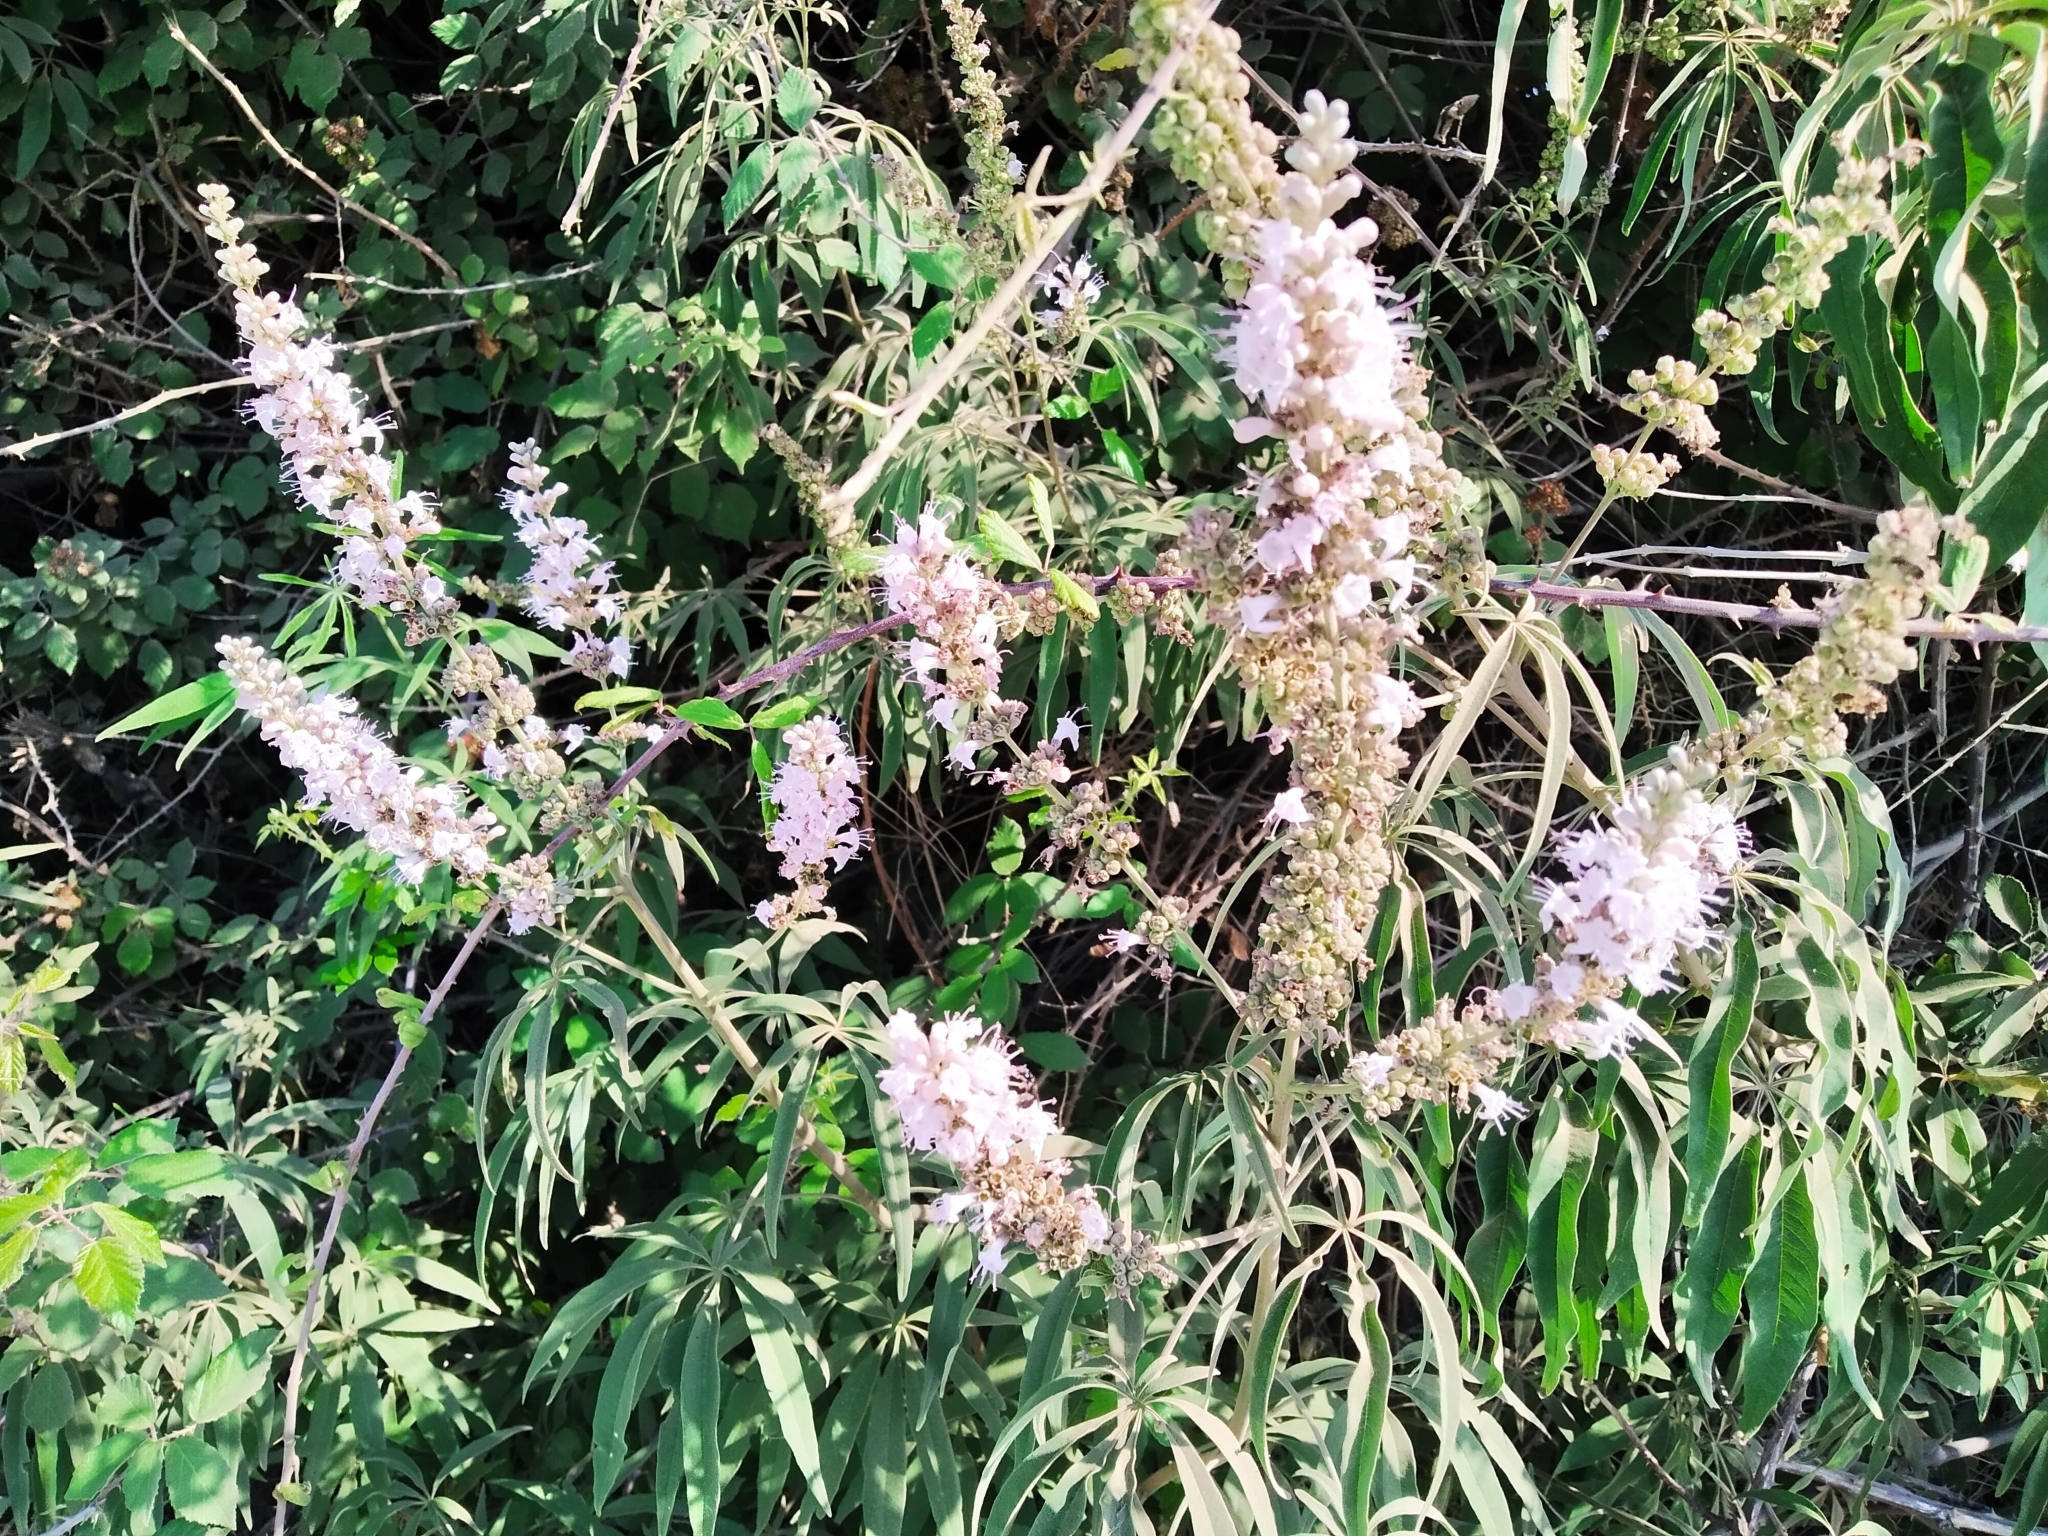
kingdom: Plantae
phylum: Tracheophyta
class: Magnoliopsida
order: Lamiales
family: Lamiaceae
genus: Vitex
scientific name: Vitex agnus-castus
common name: Chasteberry
